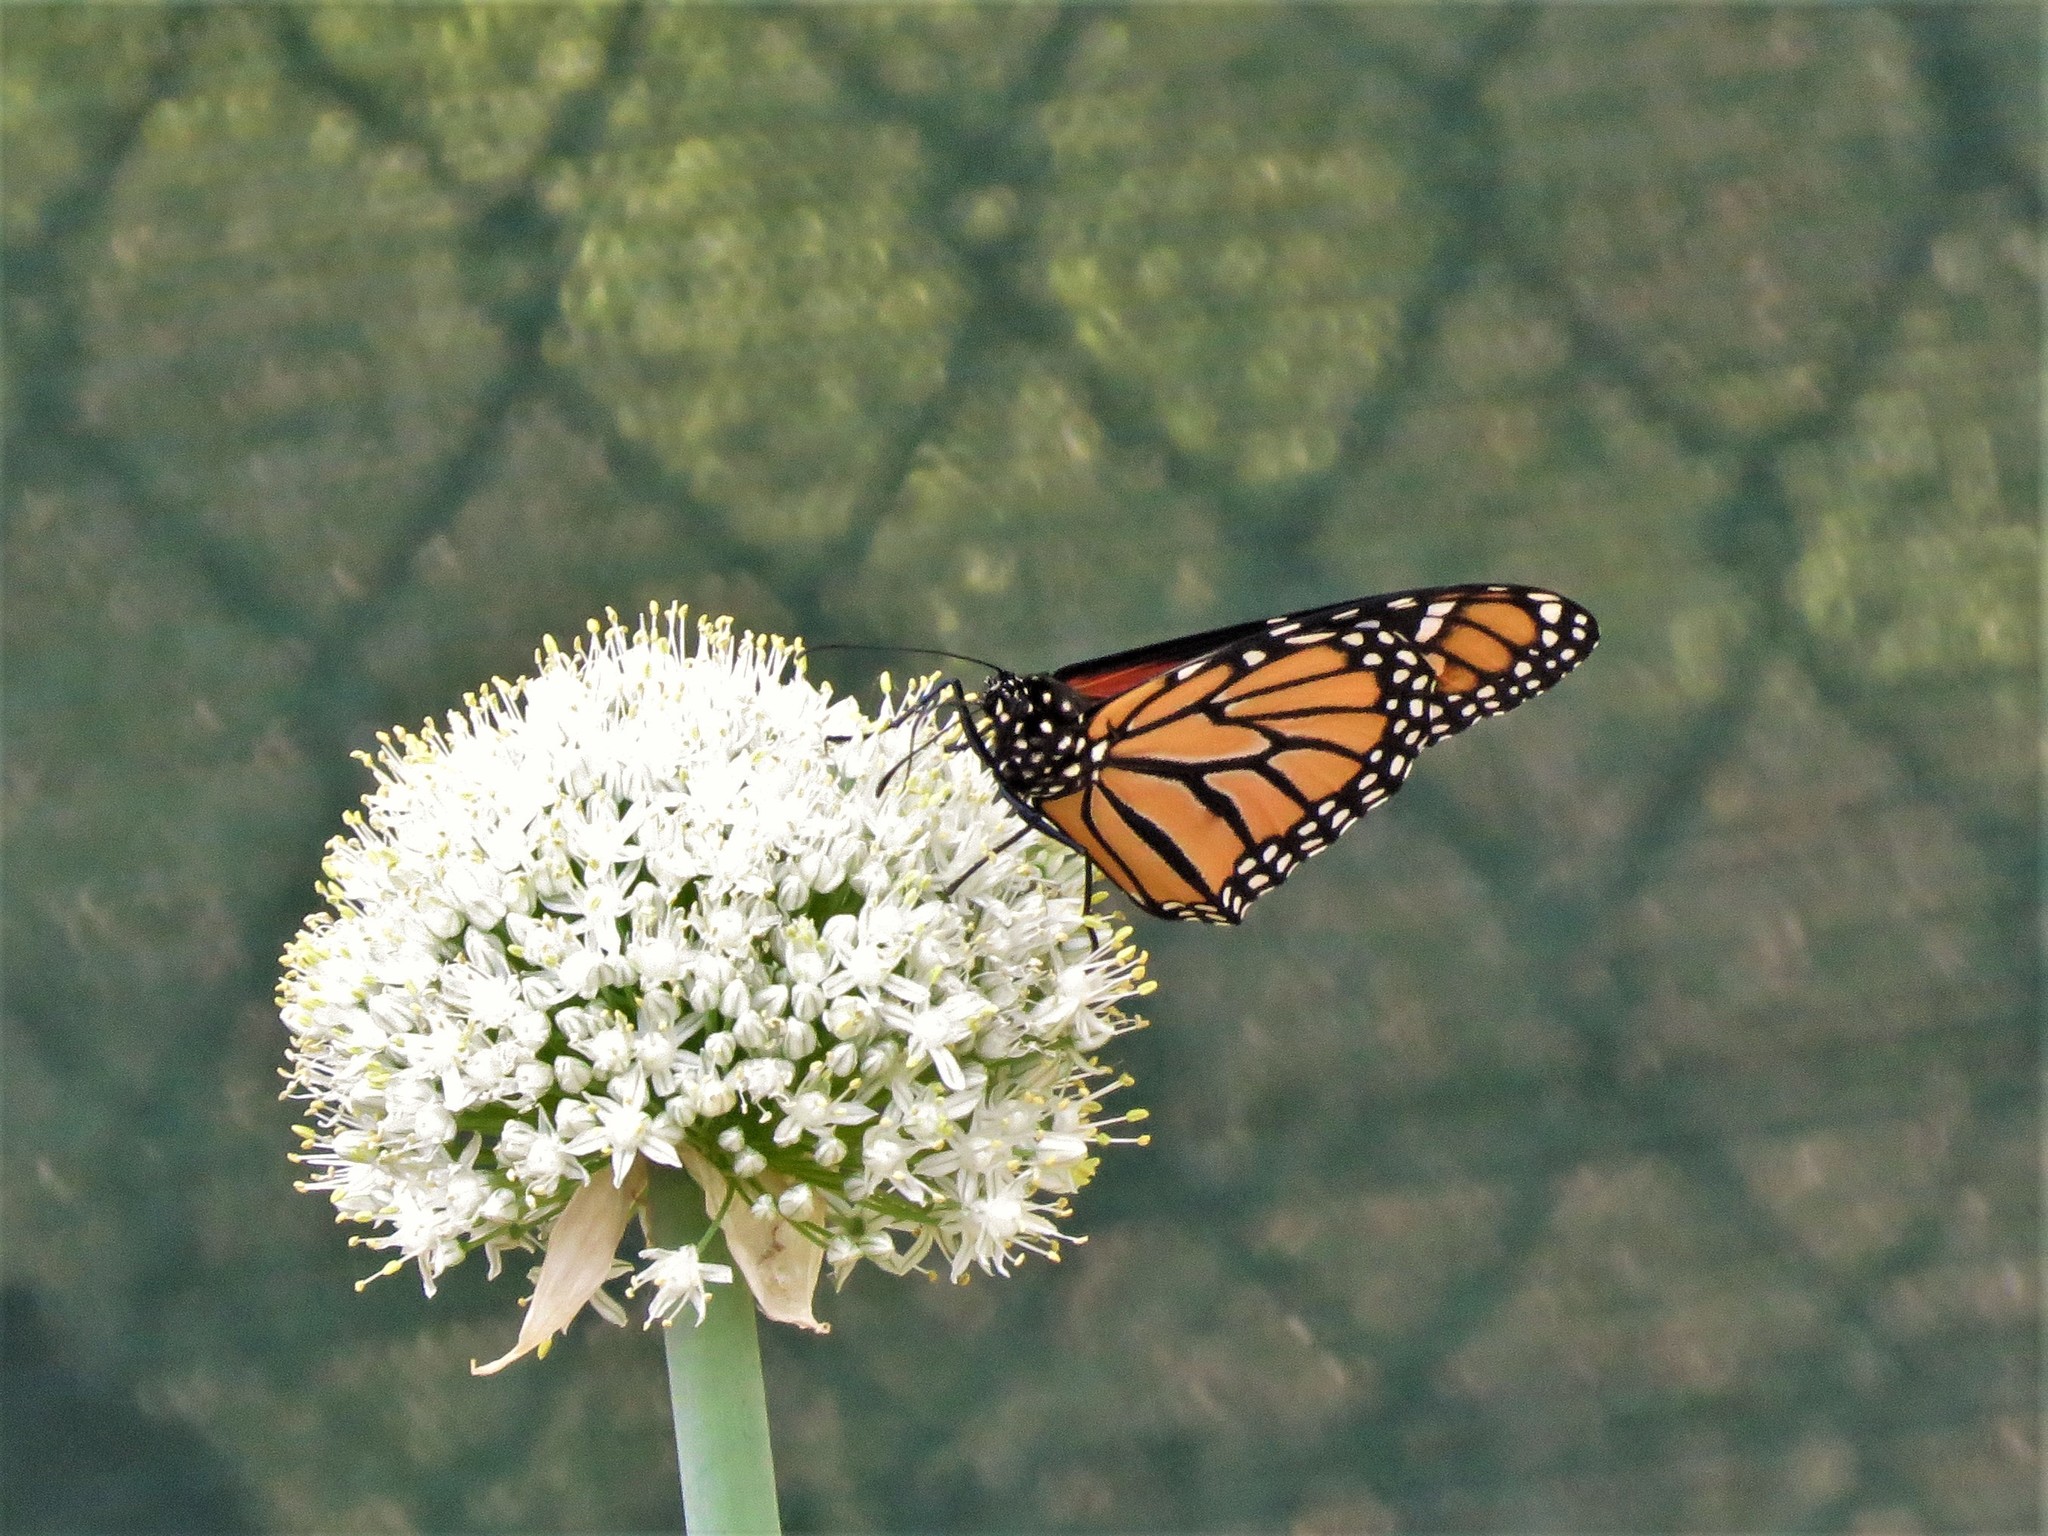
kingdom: Animalia
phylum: Arthropoda
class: Insecta
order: Lepidoptera
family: Nymphalidae
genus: Danaus
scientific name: Danaus plexippus
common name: Monarch
